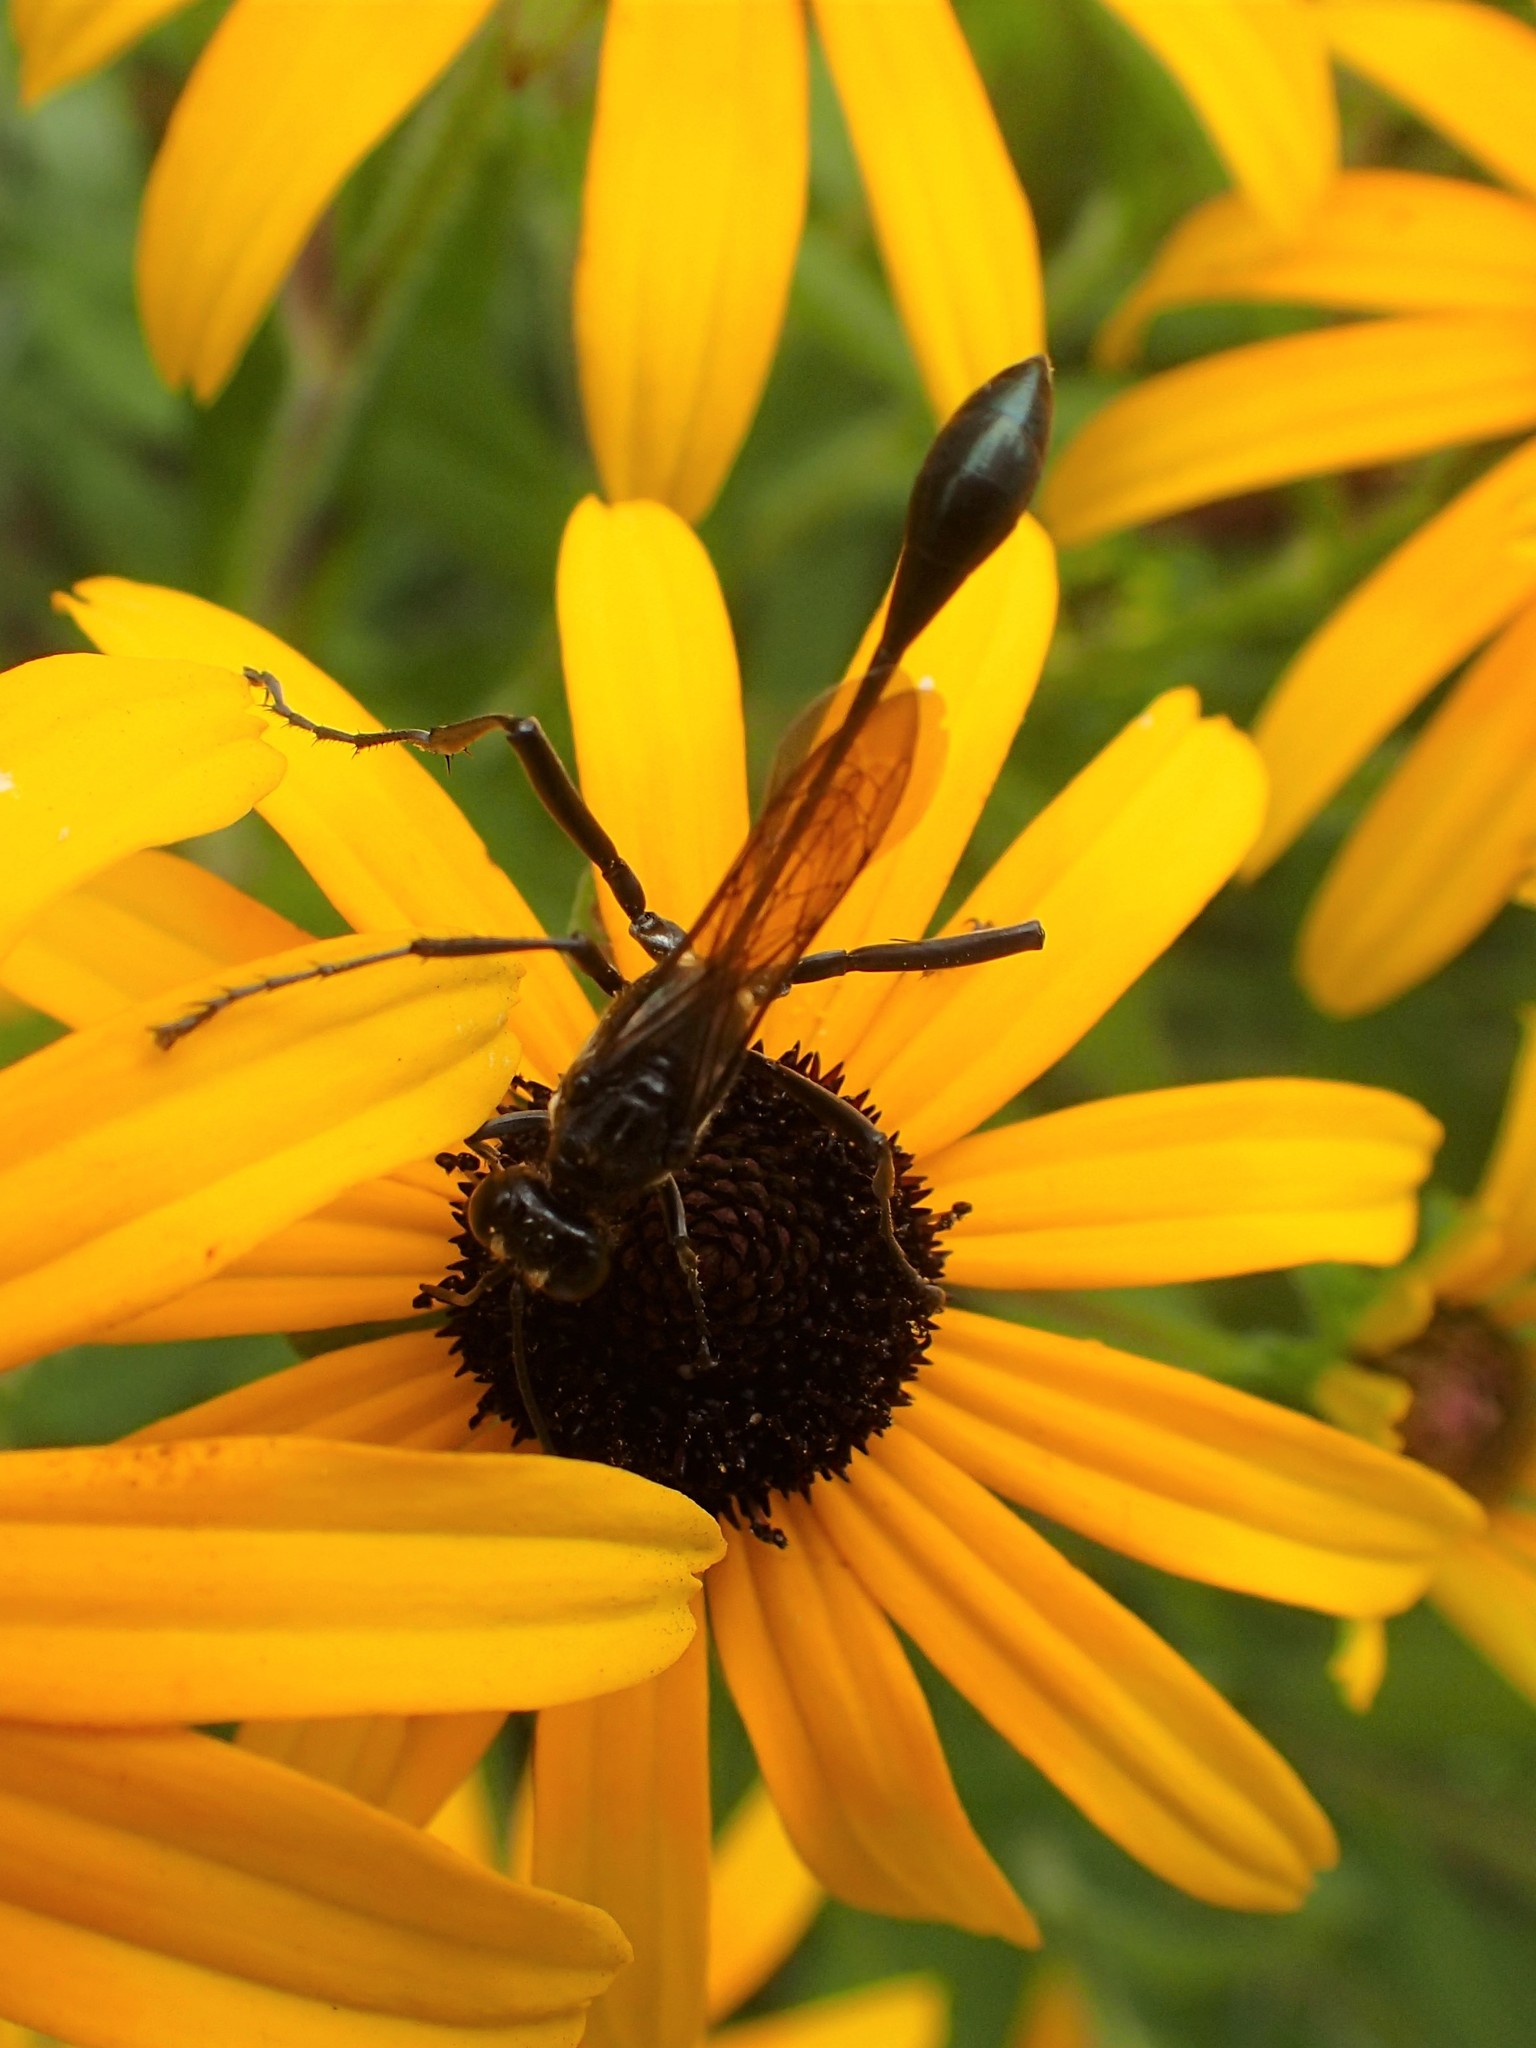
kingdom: Animalia
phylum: Arthropoda
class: Insecta
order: Hymenoptera
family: Sphecidae
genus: Eremnophila
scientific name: Eremnophila aureonotata
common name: Gold-marked thread-waisted wasp
